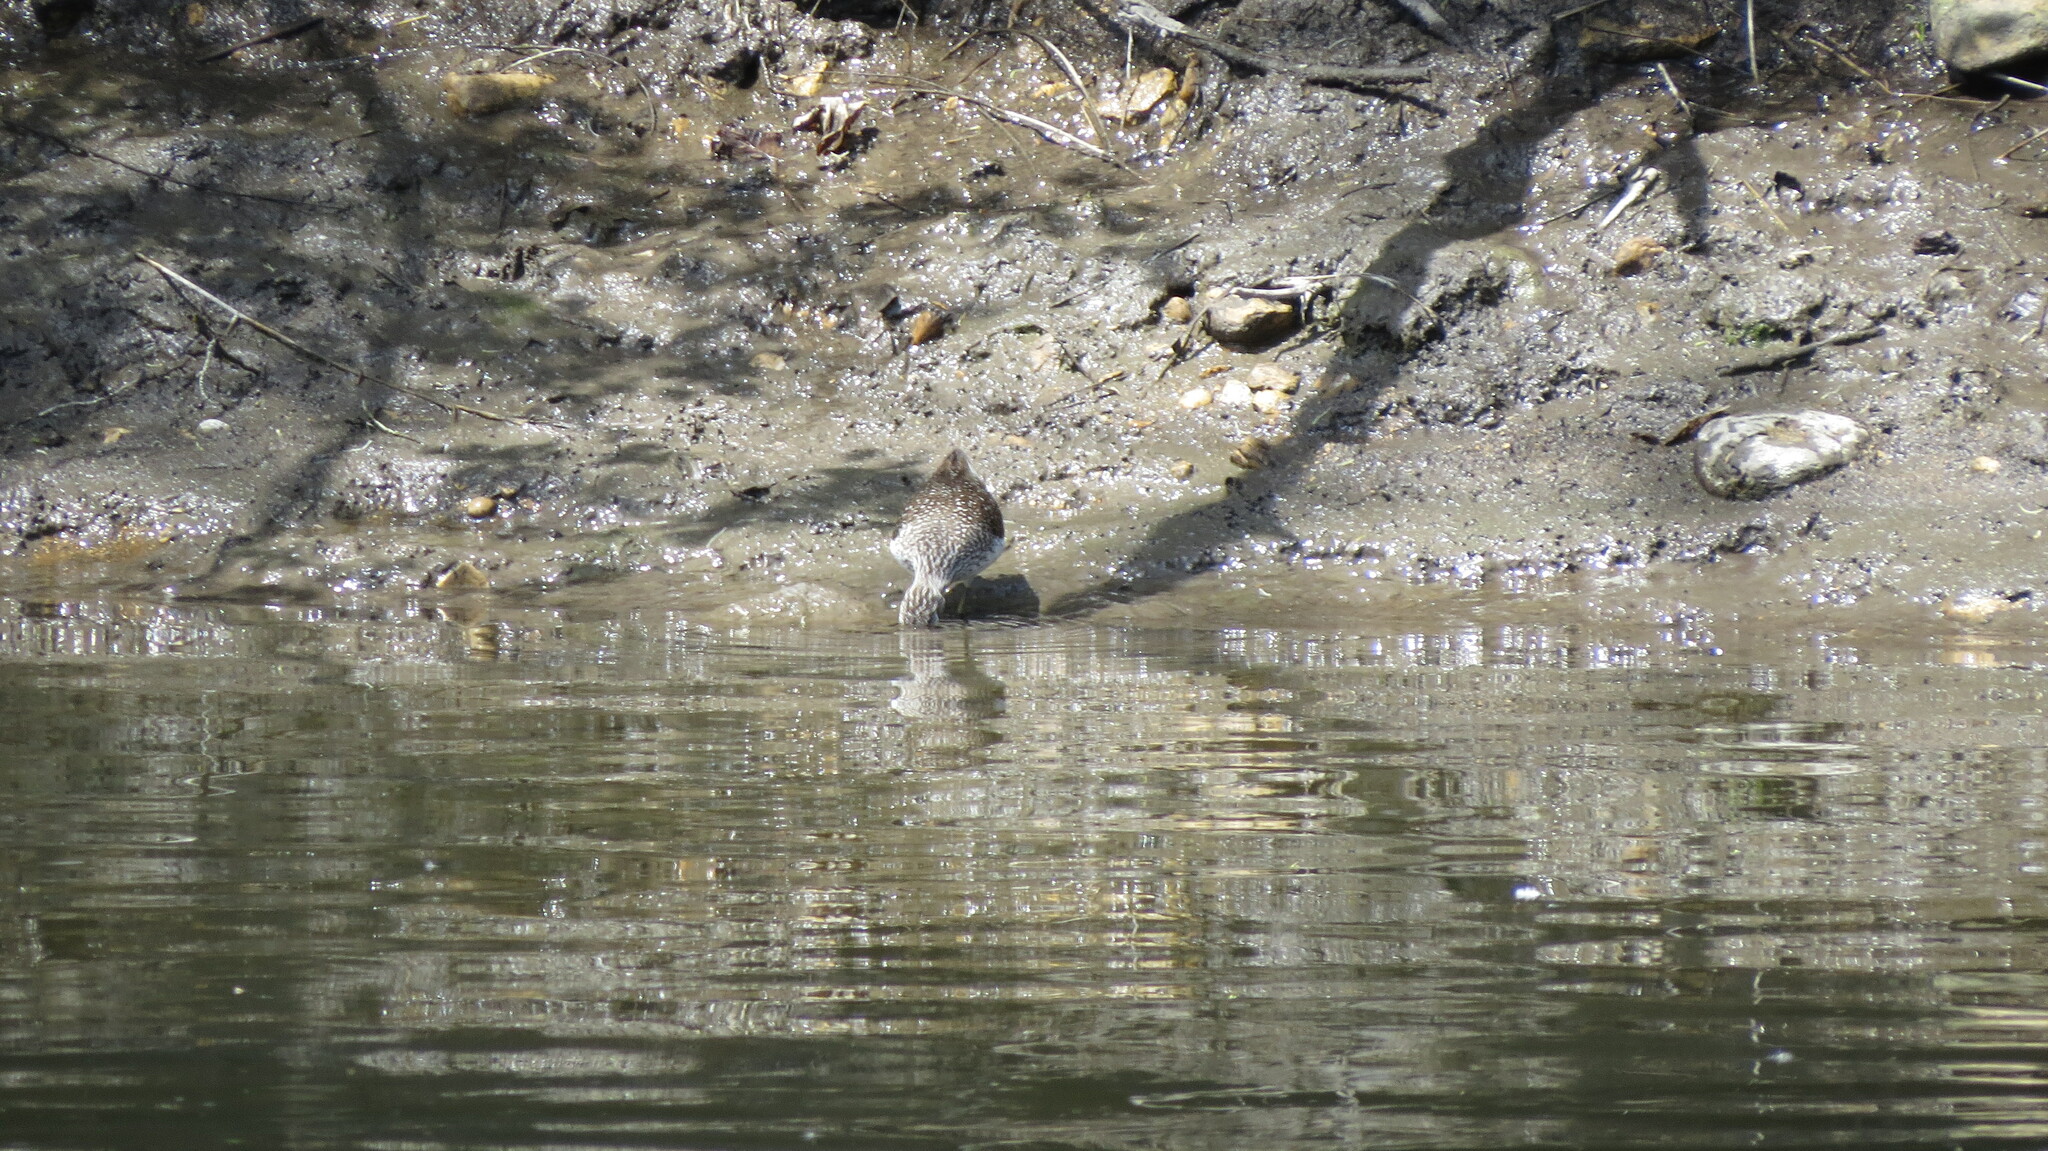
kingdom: Animalia
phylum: Chordata
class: Aves
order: Charadriiformes
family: Scolopacidae
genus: Tringa
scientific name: Tringa solitaria
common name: Solitary sandpiper
